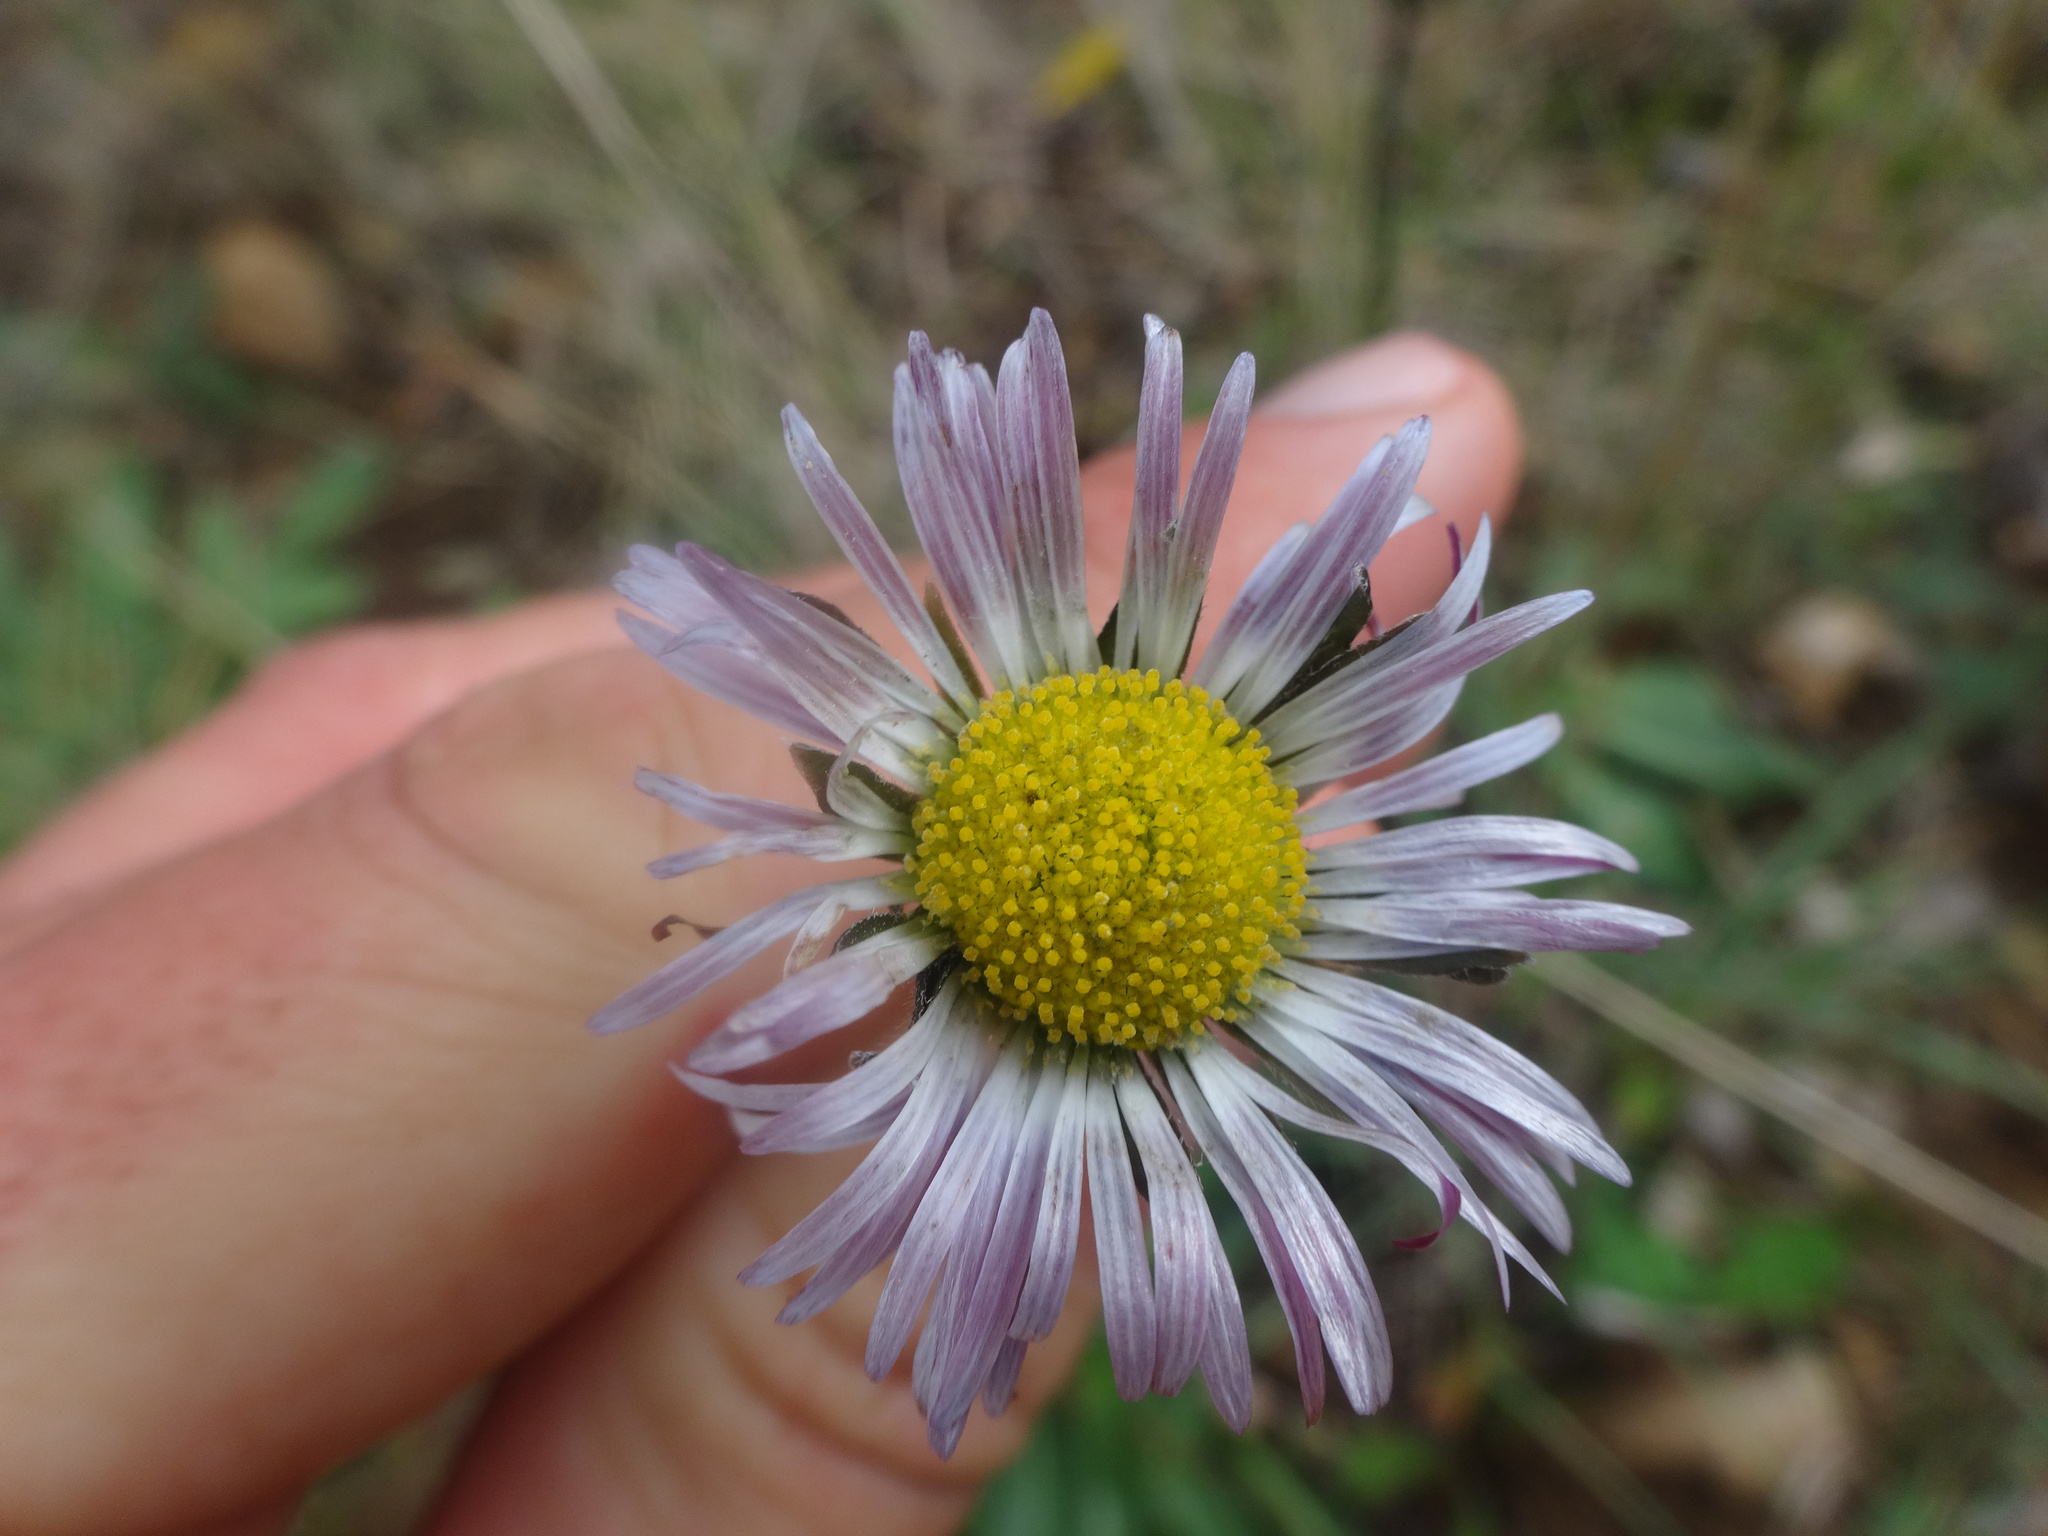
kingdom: Plantae
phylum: Tracheophyta
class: Magnoliopsida
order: Asterales
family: Asteraceae
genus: Bellis
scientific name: Bellis sylvestris
